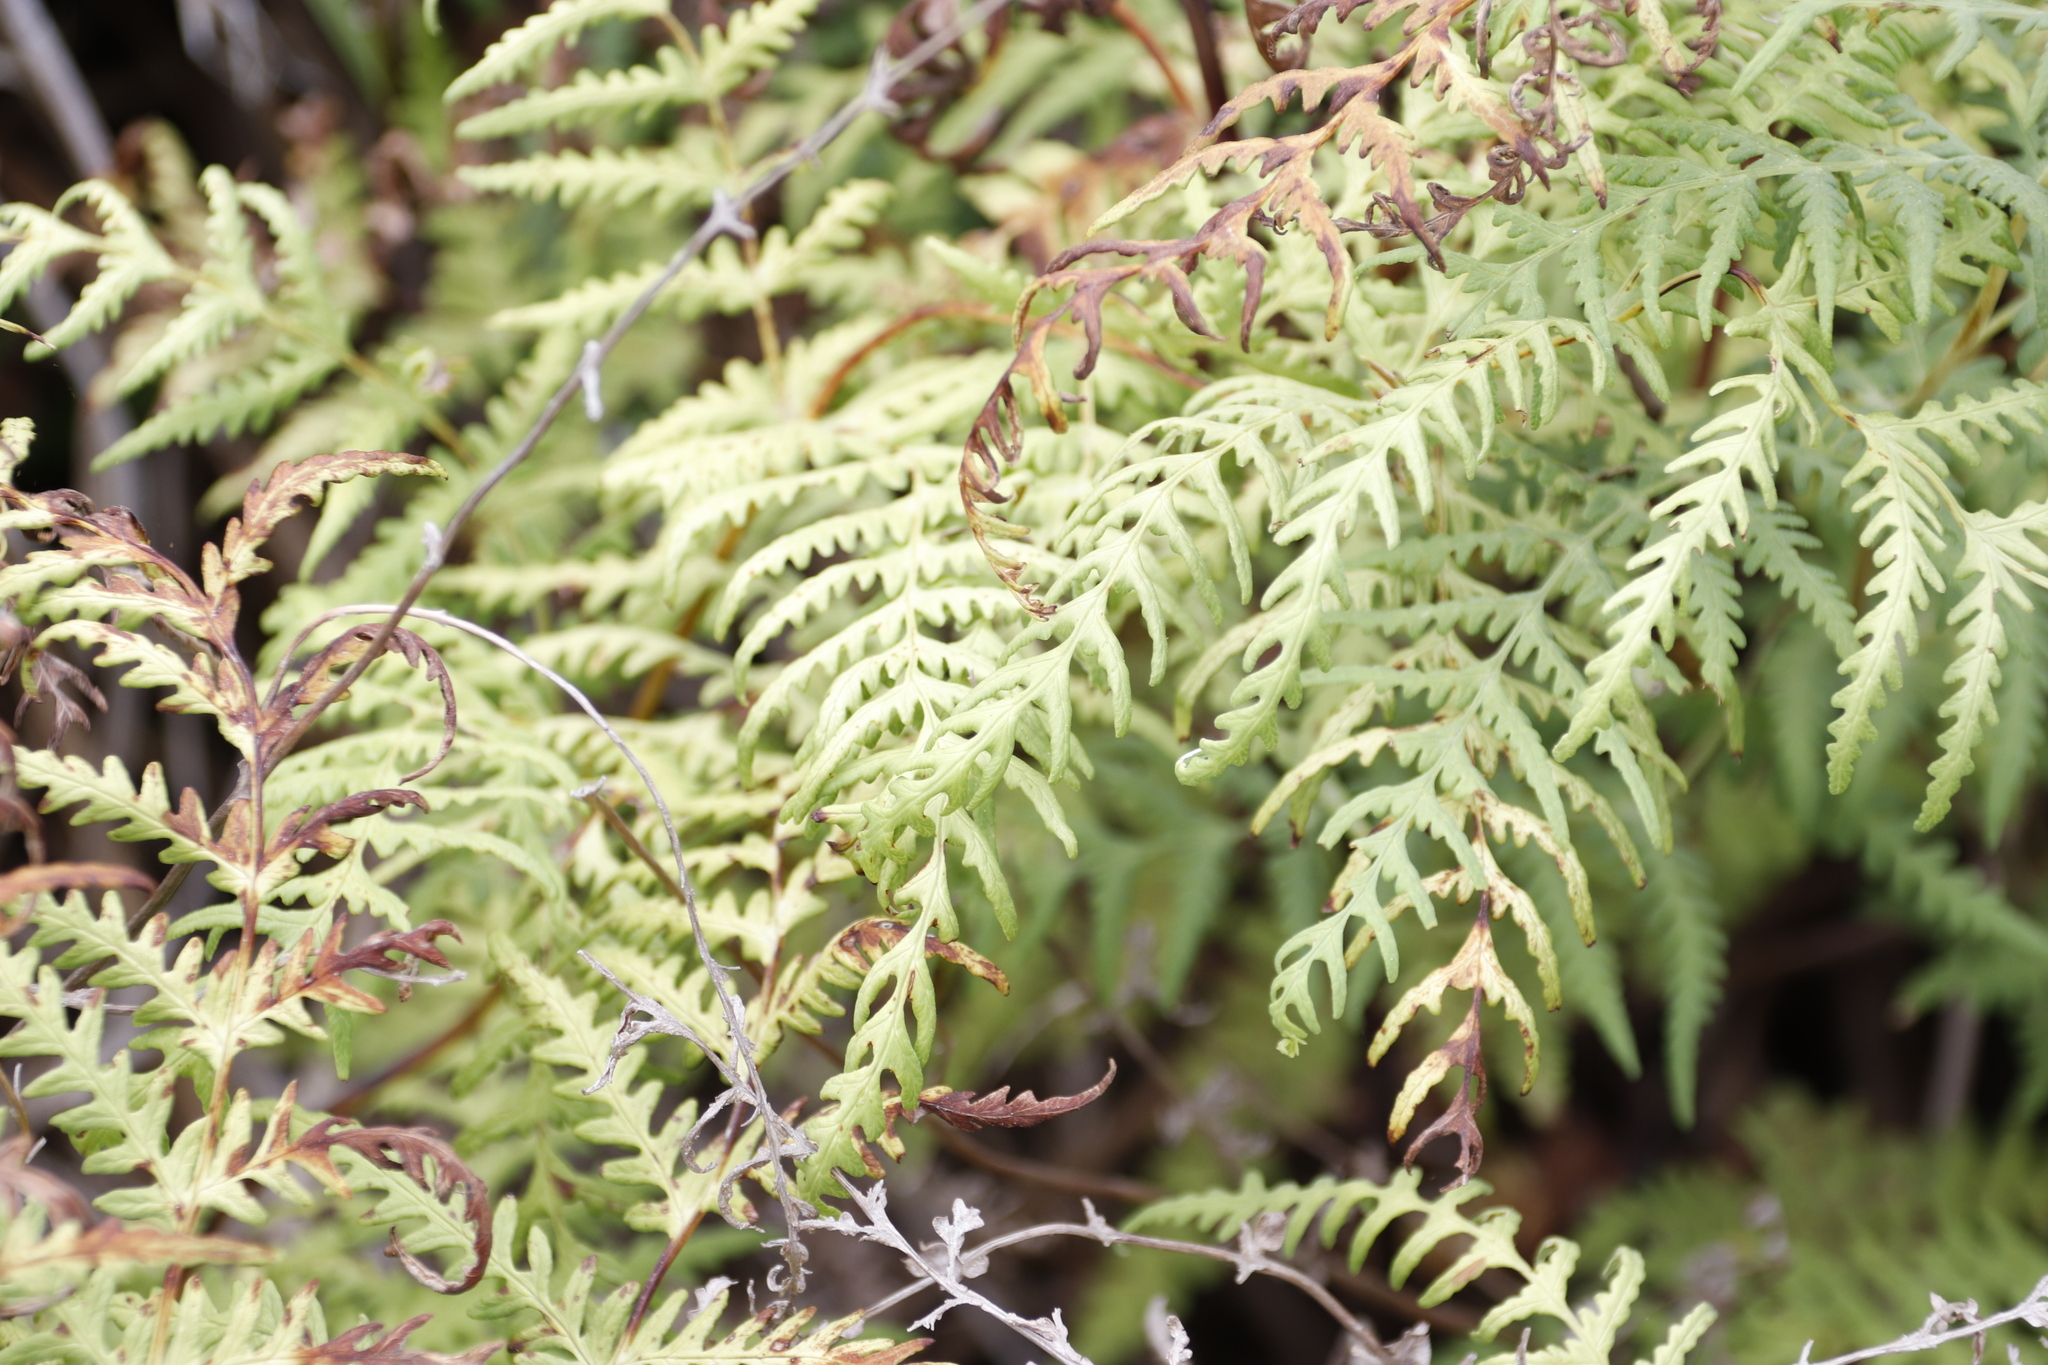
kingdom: Plantae
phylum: Tracheophyta
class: Polypodiopsida
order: Polypodiales
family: Dennstaedtiaceae
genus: Histiopteris
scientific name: Histiopteris incisa
